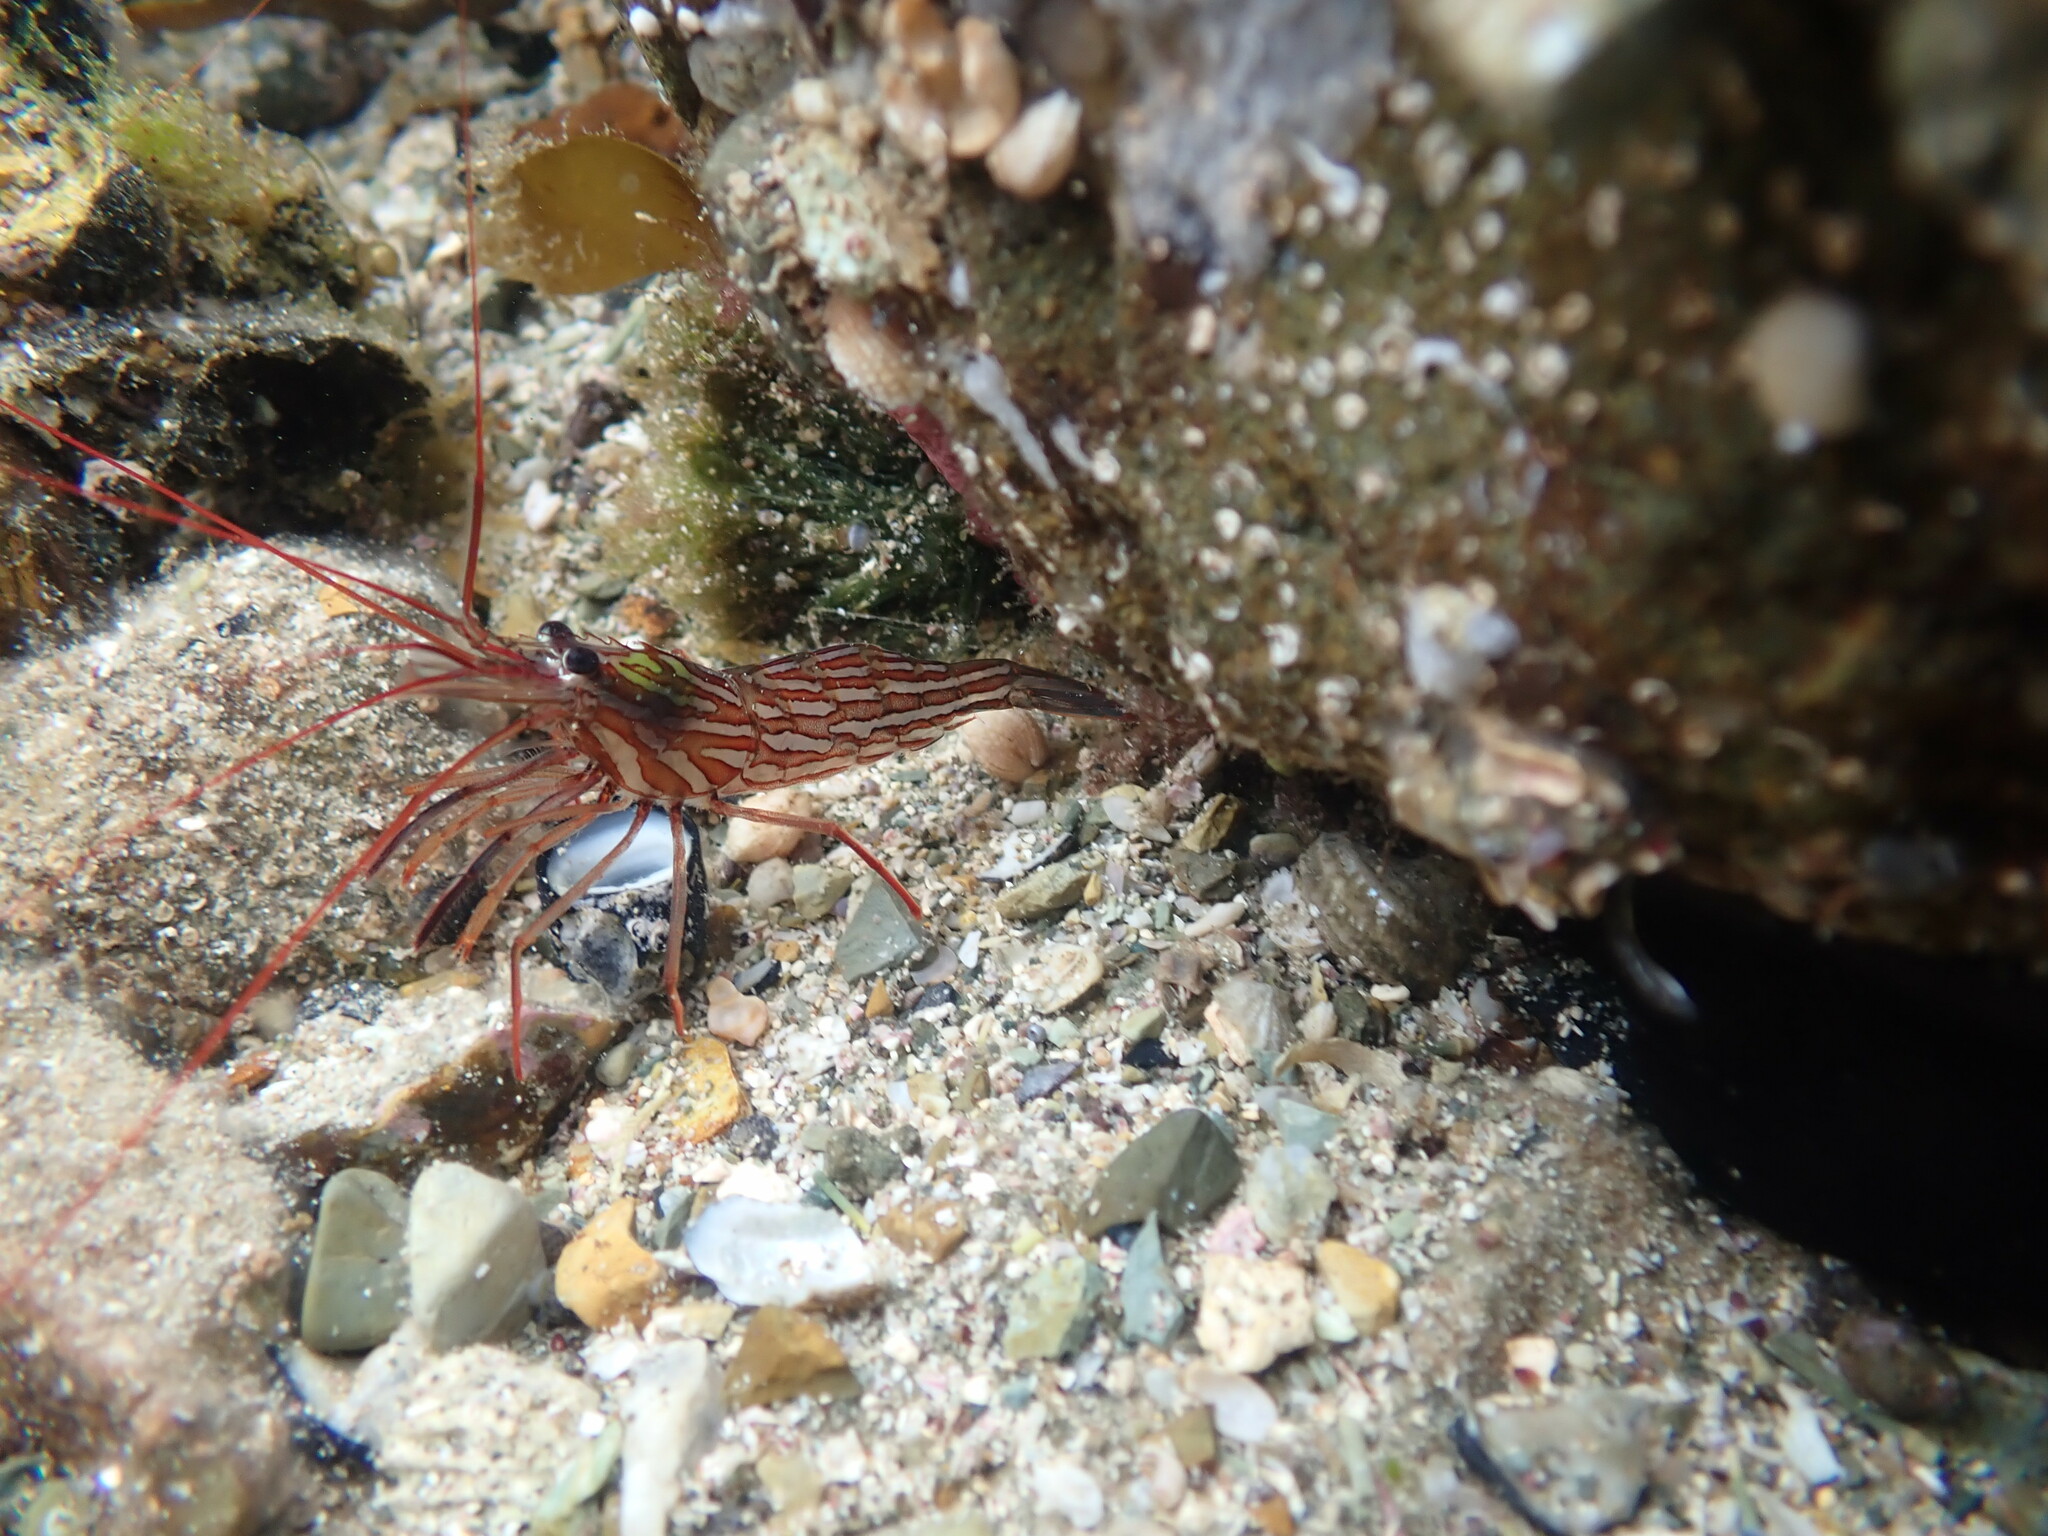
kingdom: Animalia
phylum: Arthropoda
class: Malacostraca
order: Decapoda
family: Lysmatidae
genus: Lysmata
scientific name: Lysmata californica
